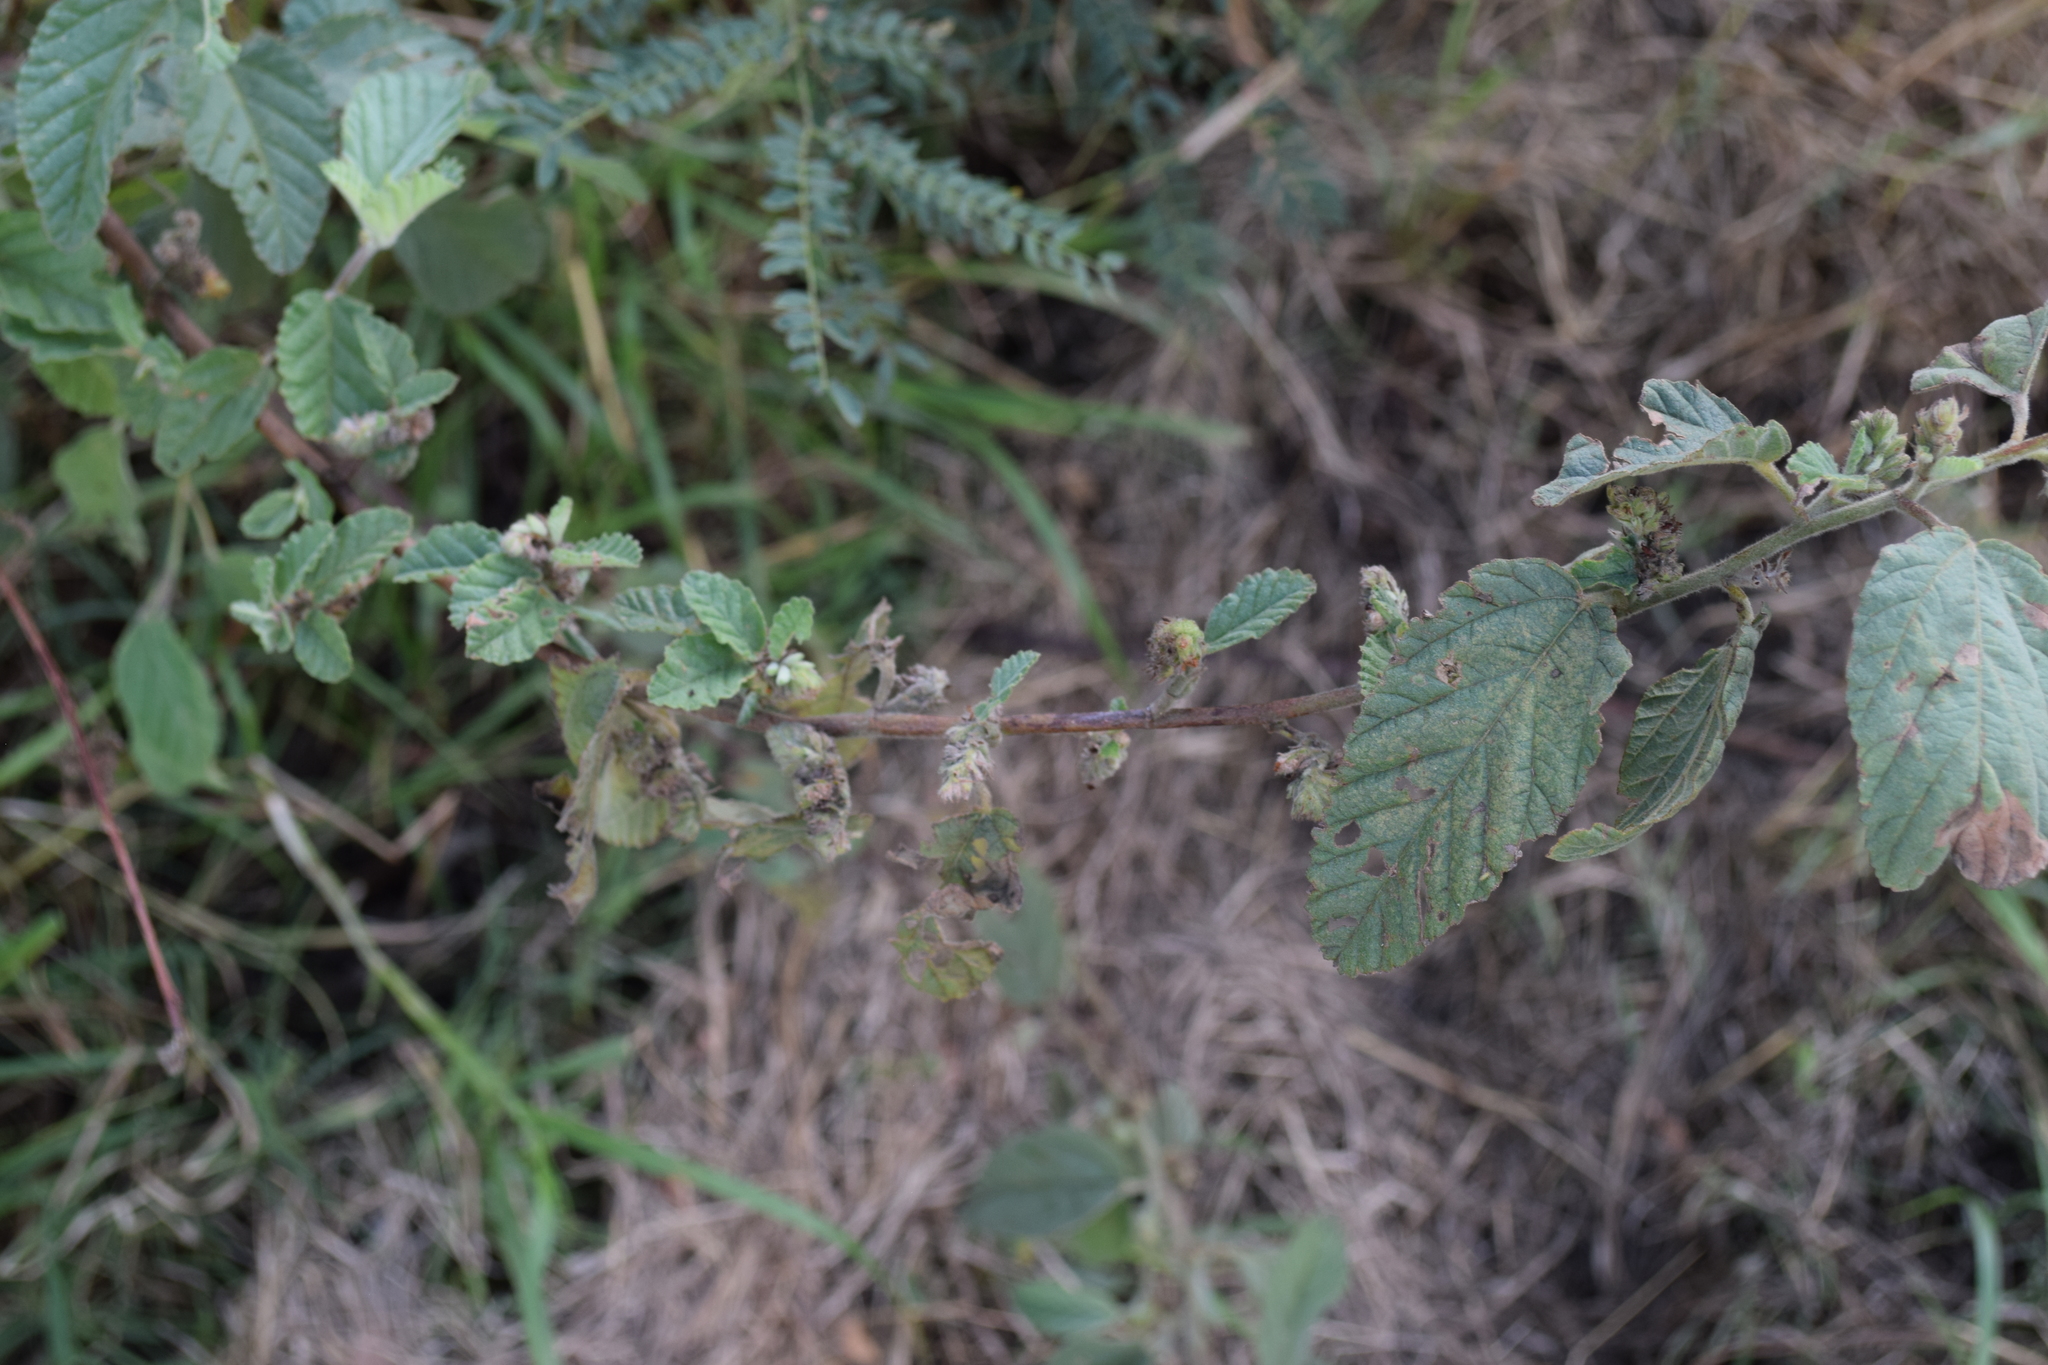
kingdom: Plantae
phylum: Tracheophyta
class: Magnoliopsida
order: Malvales
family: Malvaceae
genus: Waltheria
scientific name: Waltheria indica
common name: Leather-coat
